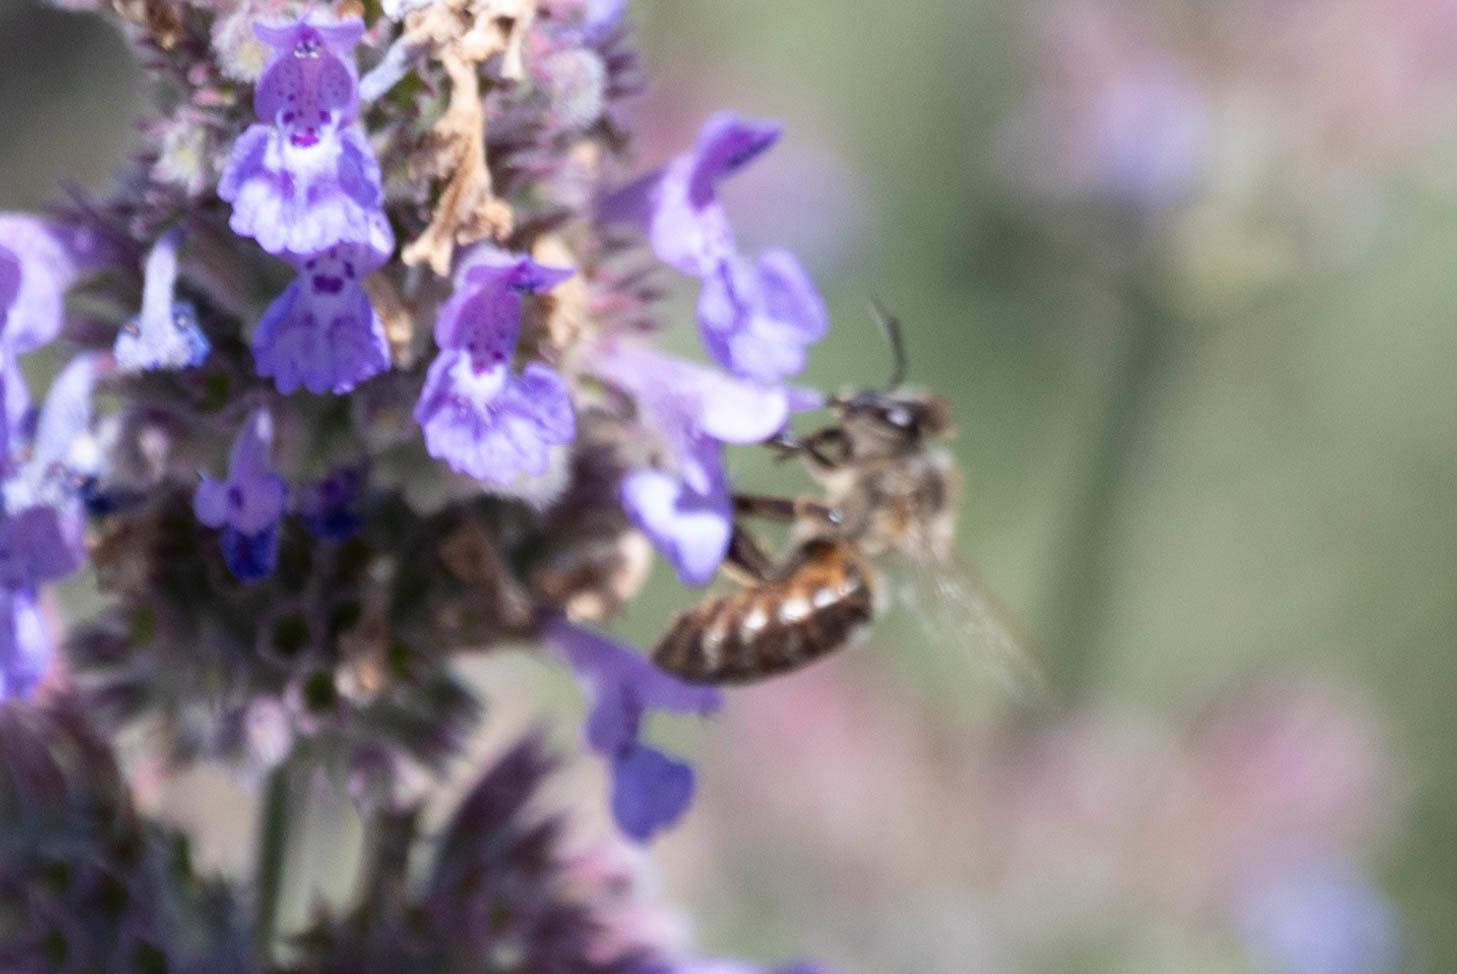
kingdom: Animalia
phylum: Arthropoda
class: Insecta
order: Hymenoptera
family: Apidae
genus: Apis
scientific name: Apis mellifera
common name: Honey bee
